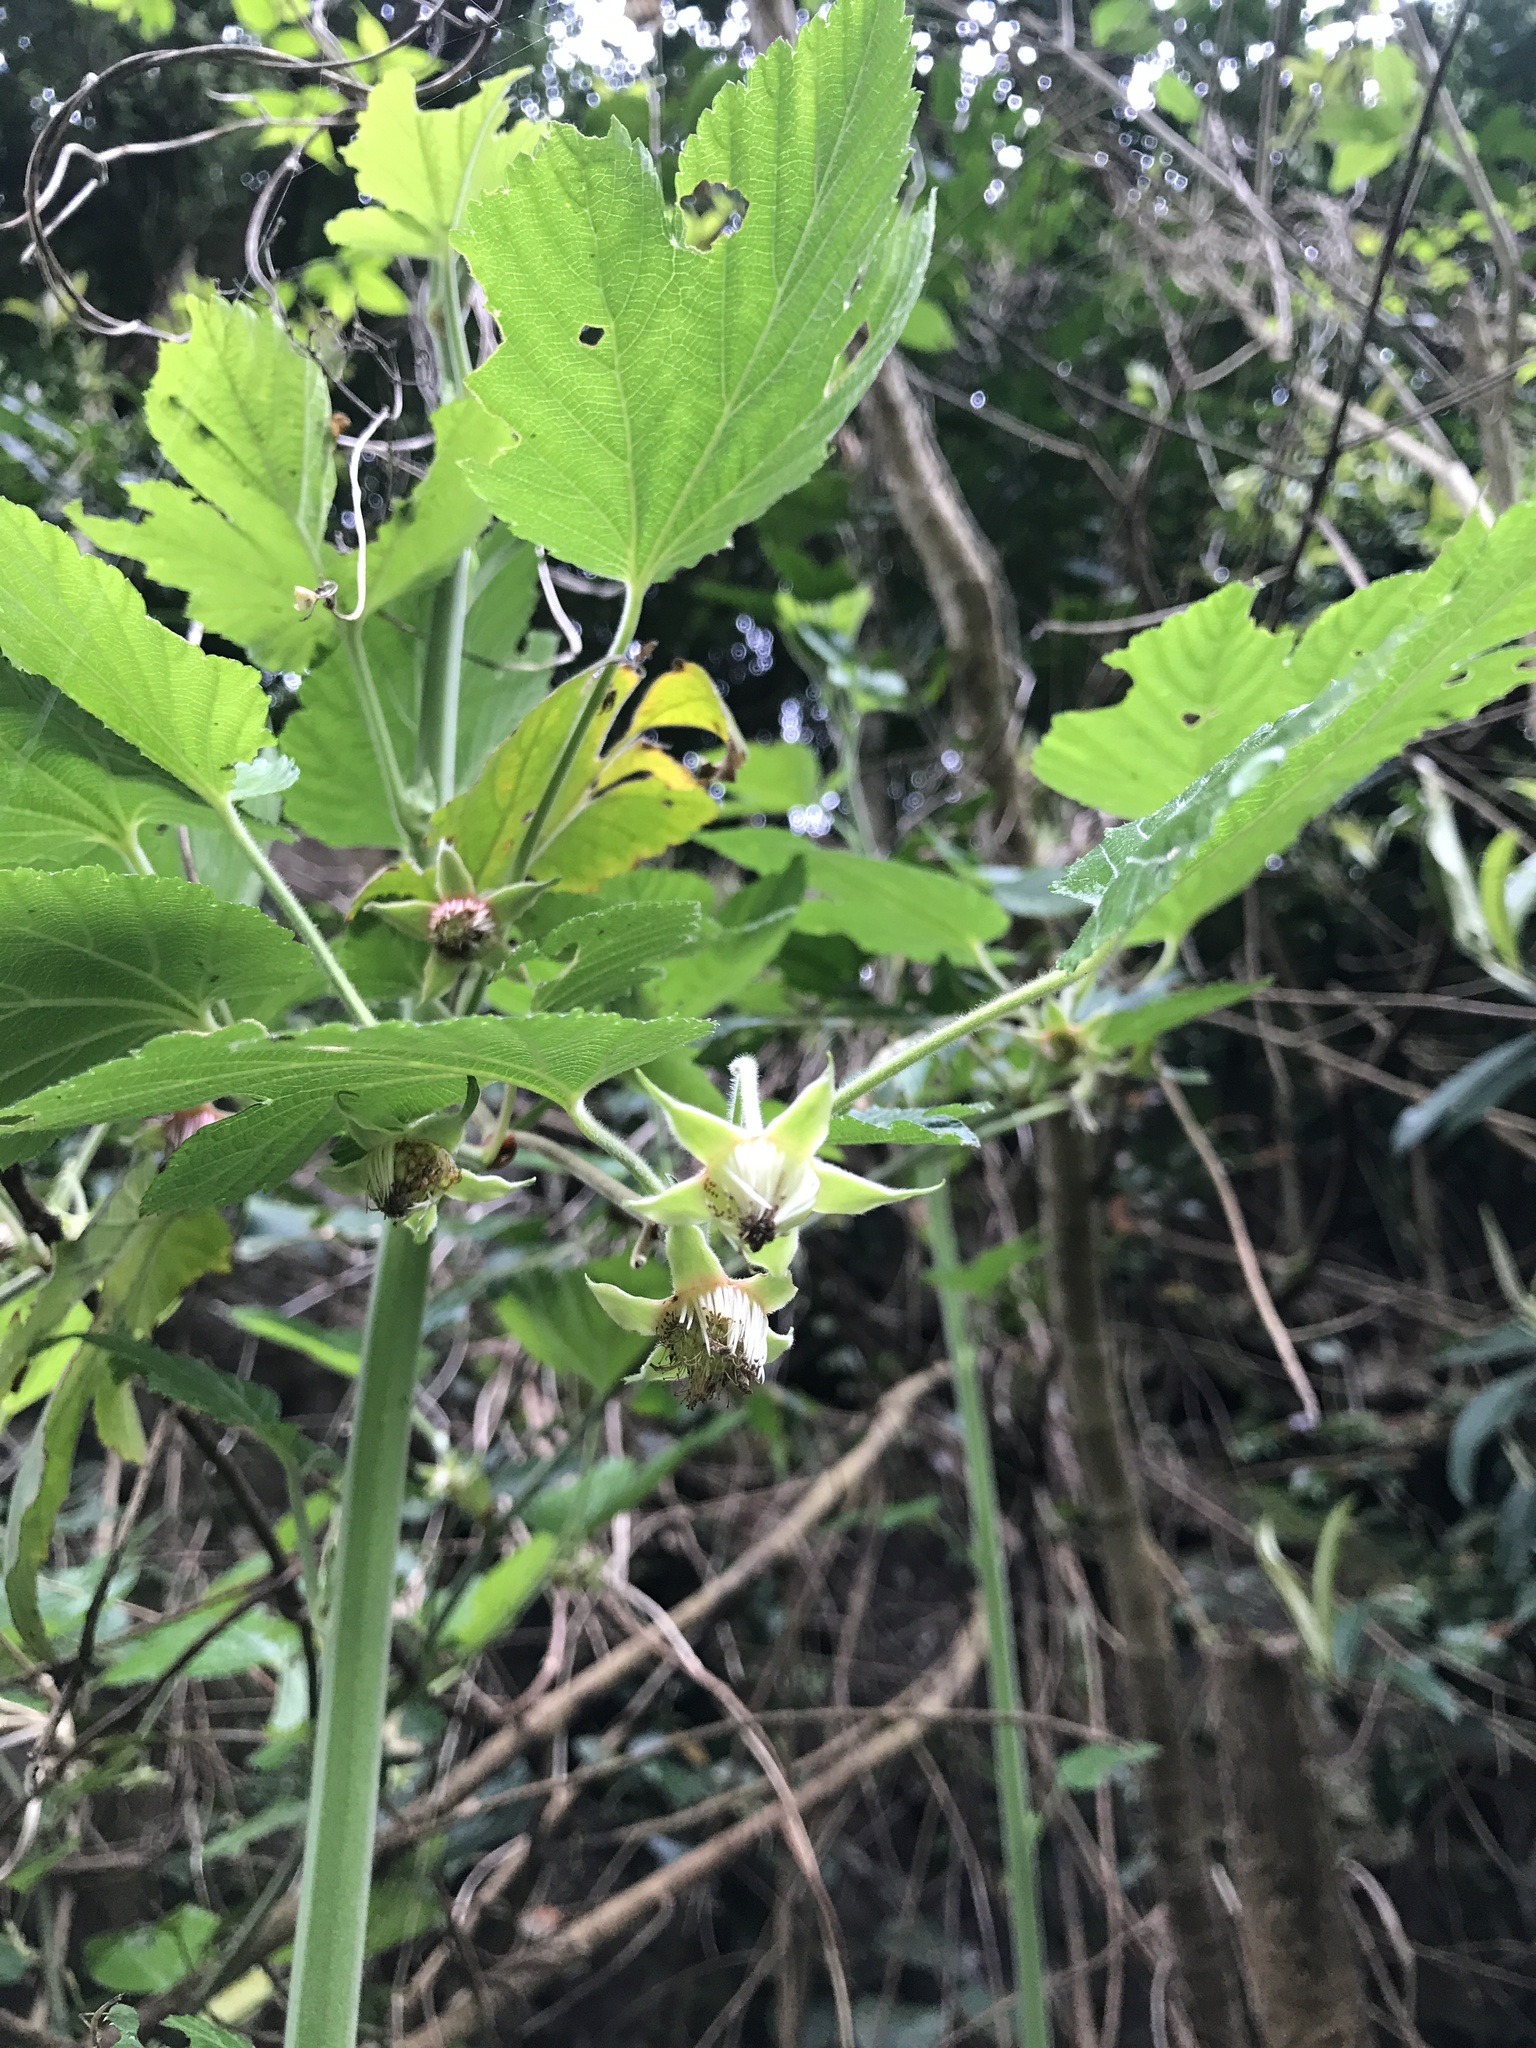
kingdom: Plantae
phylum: Tracheophyta
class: Magnoliopsida
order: Rosales
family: Rosaceae
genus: Rubus
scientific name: Rubus ribisoideus
